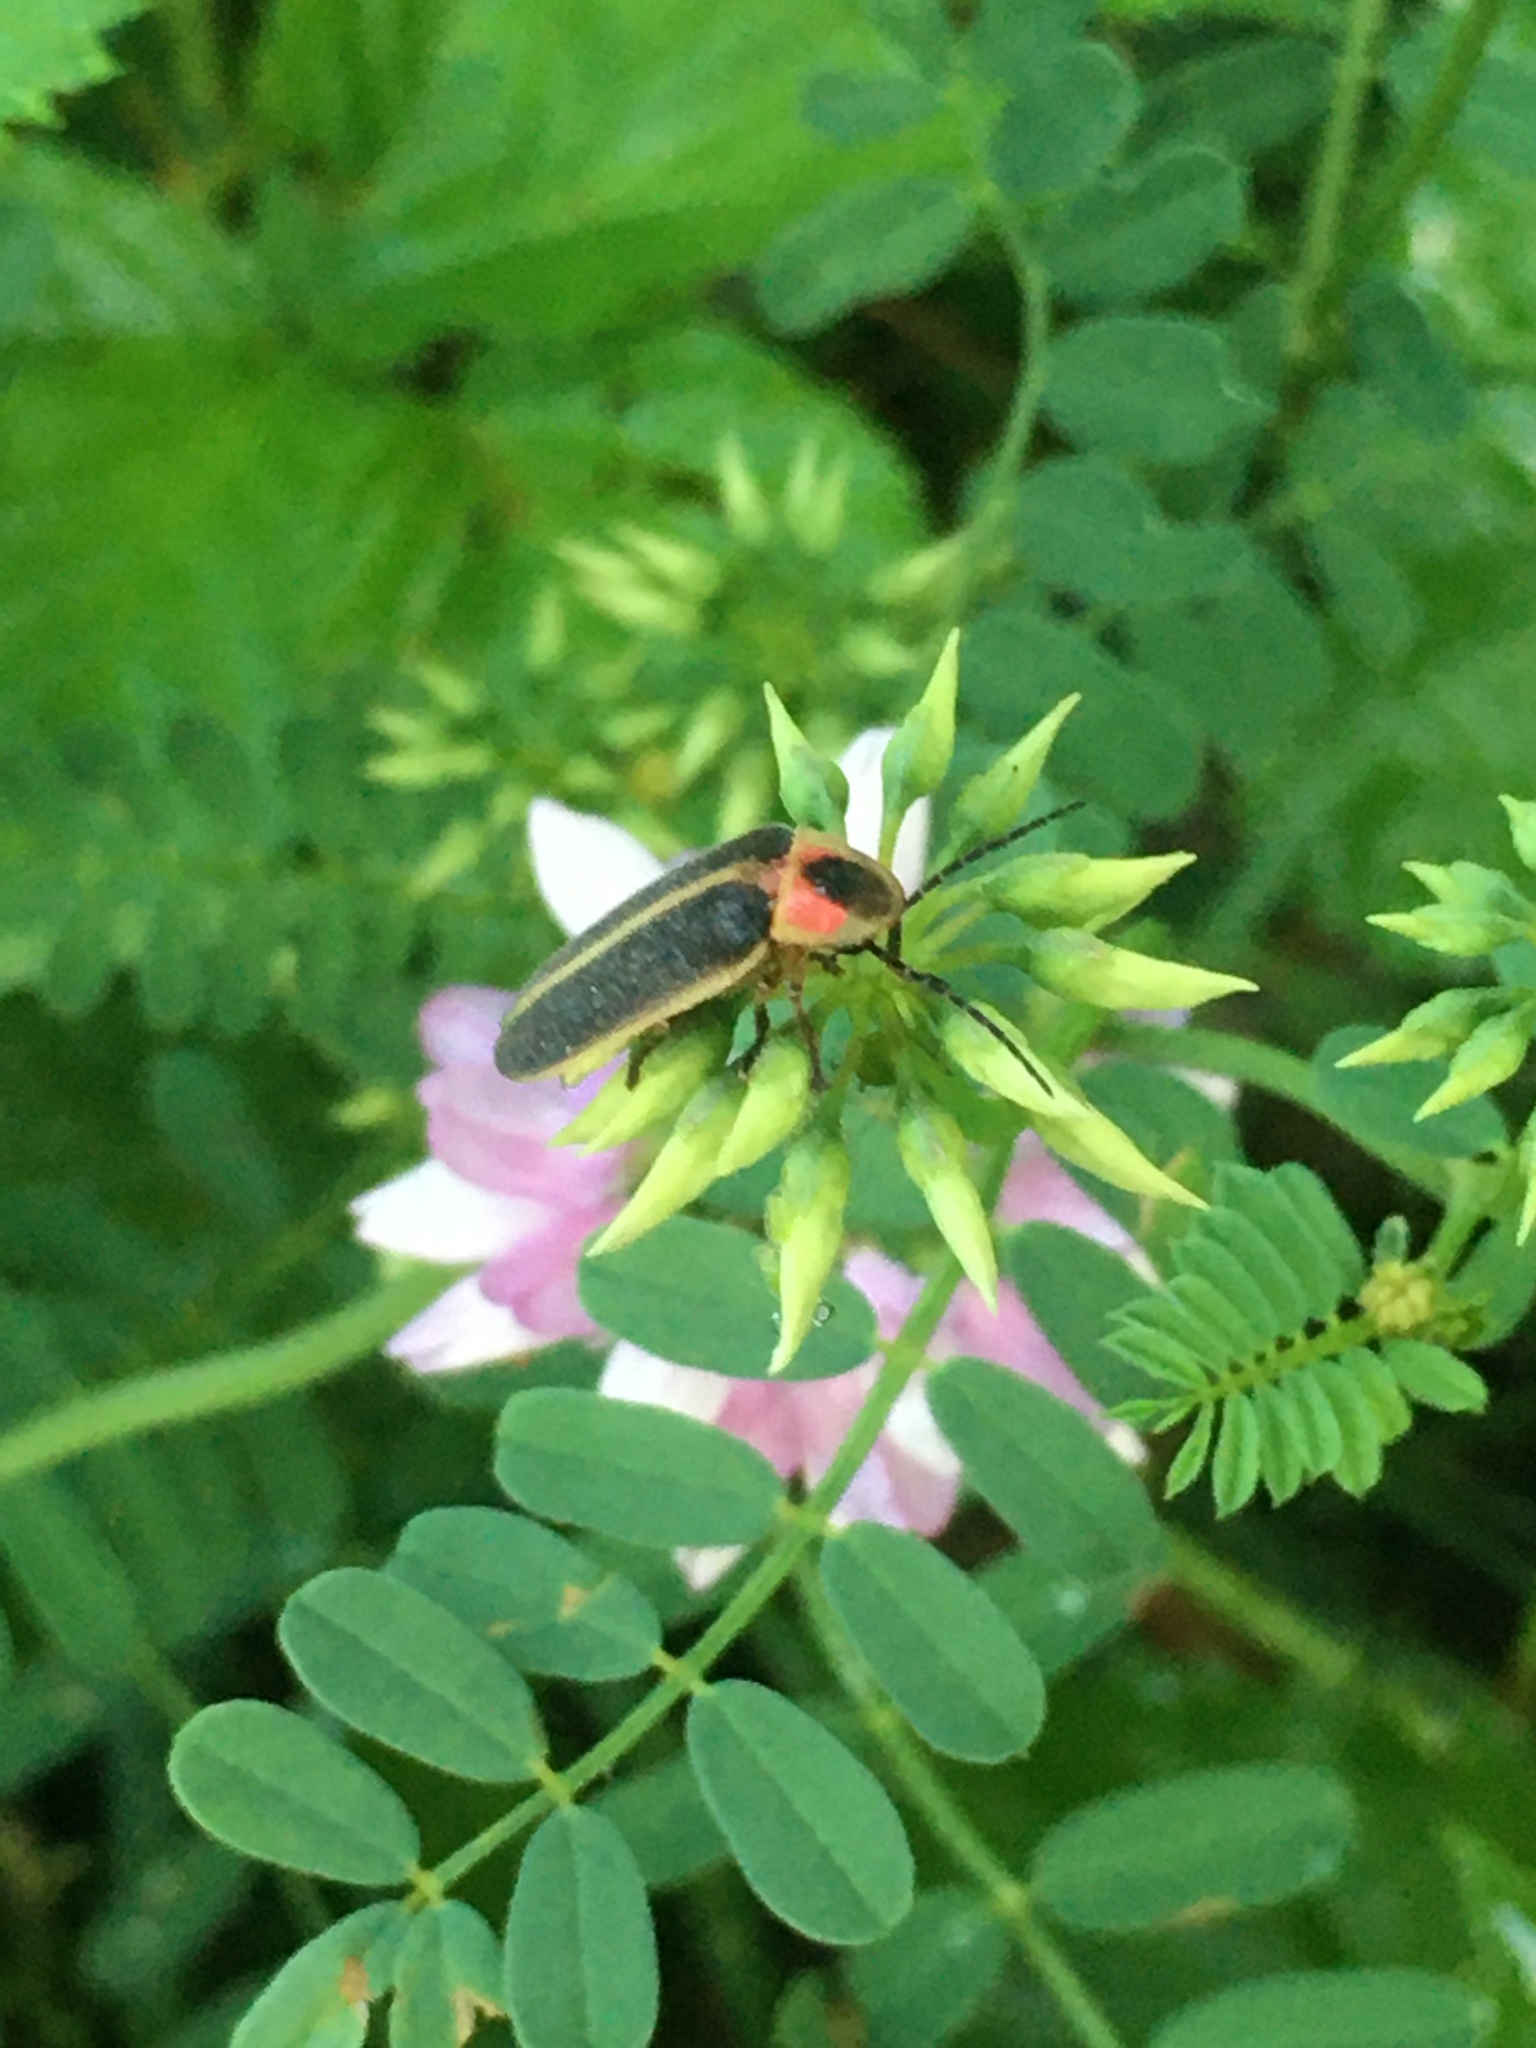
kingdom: Animalia
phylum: Arthropoda
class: Insecta
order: Coleoptera
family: Lampyridae
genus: Photinus
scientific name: Photinus pyralis
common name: Big dipper firefly
